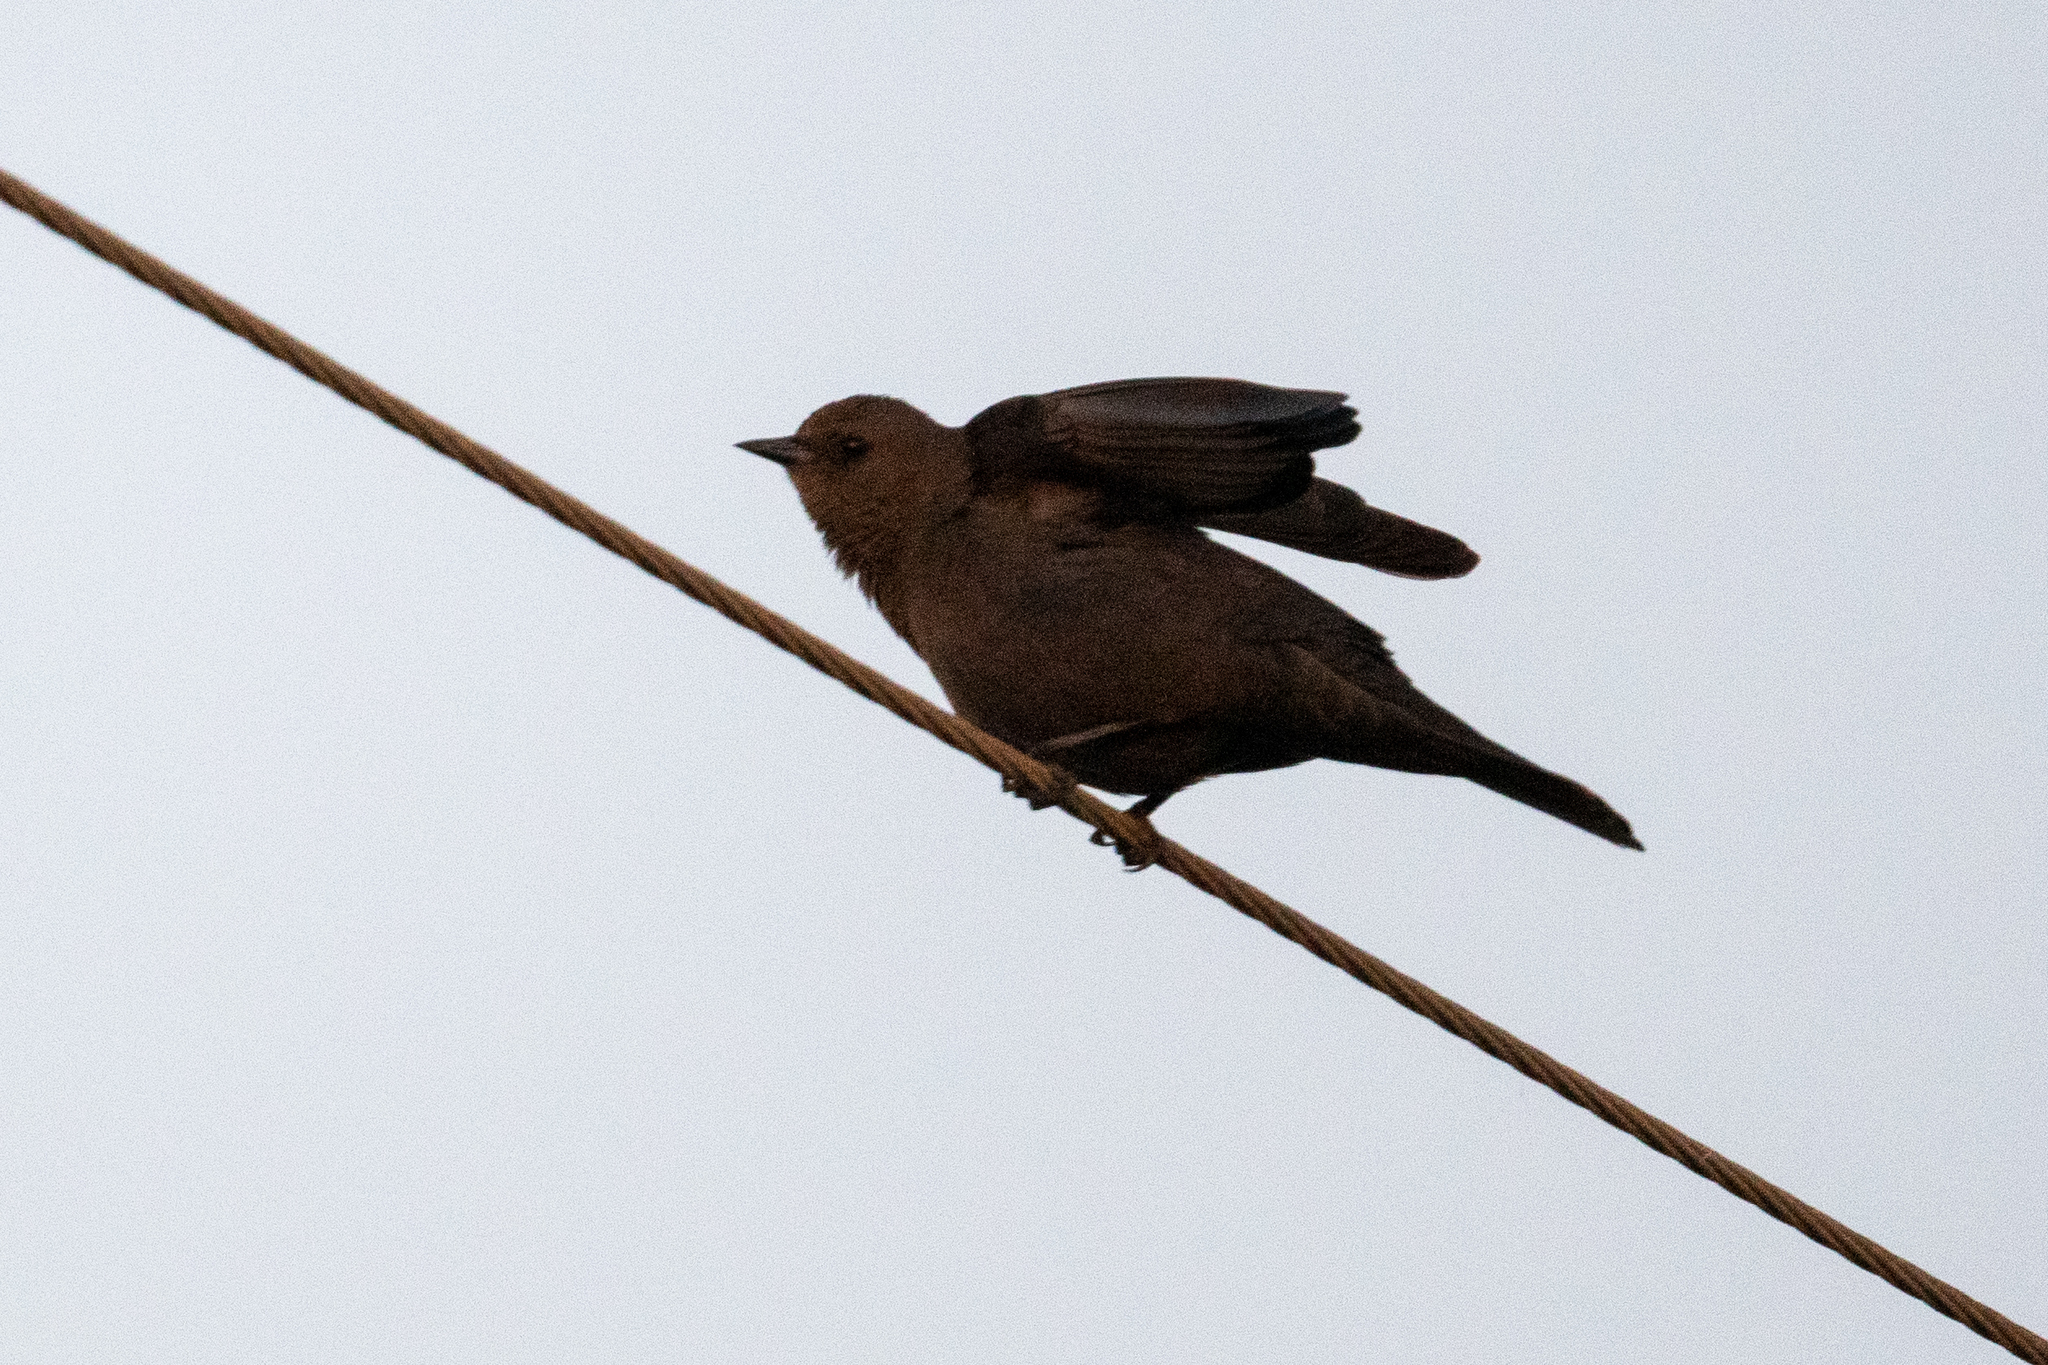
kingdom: Animalia
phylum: Chordata
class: Aves
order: Passeriformes
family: Icteridae
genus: Euphagus
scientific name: Euphagus cyanocephalus
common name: Brewer's blackbird
